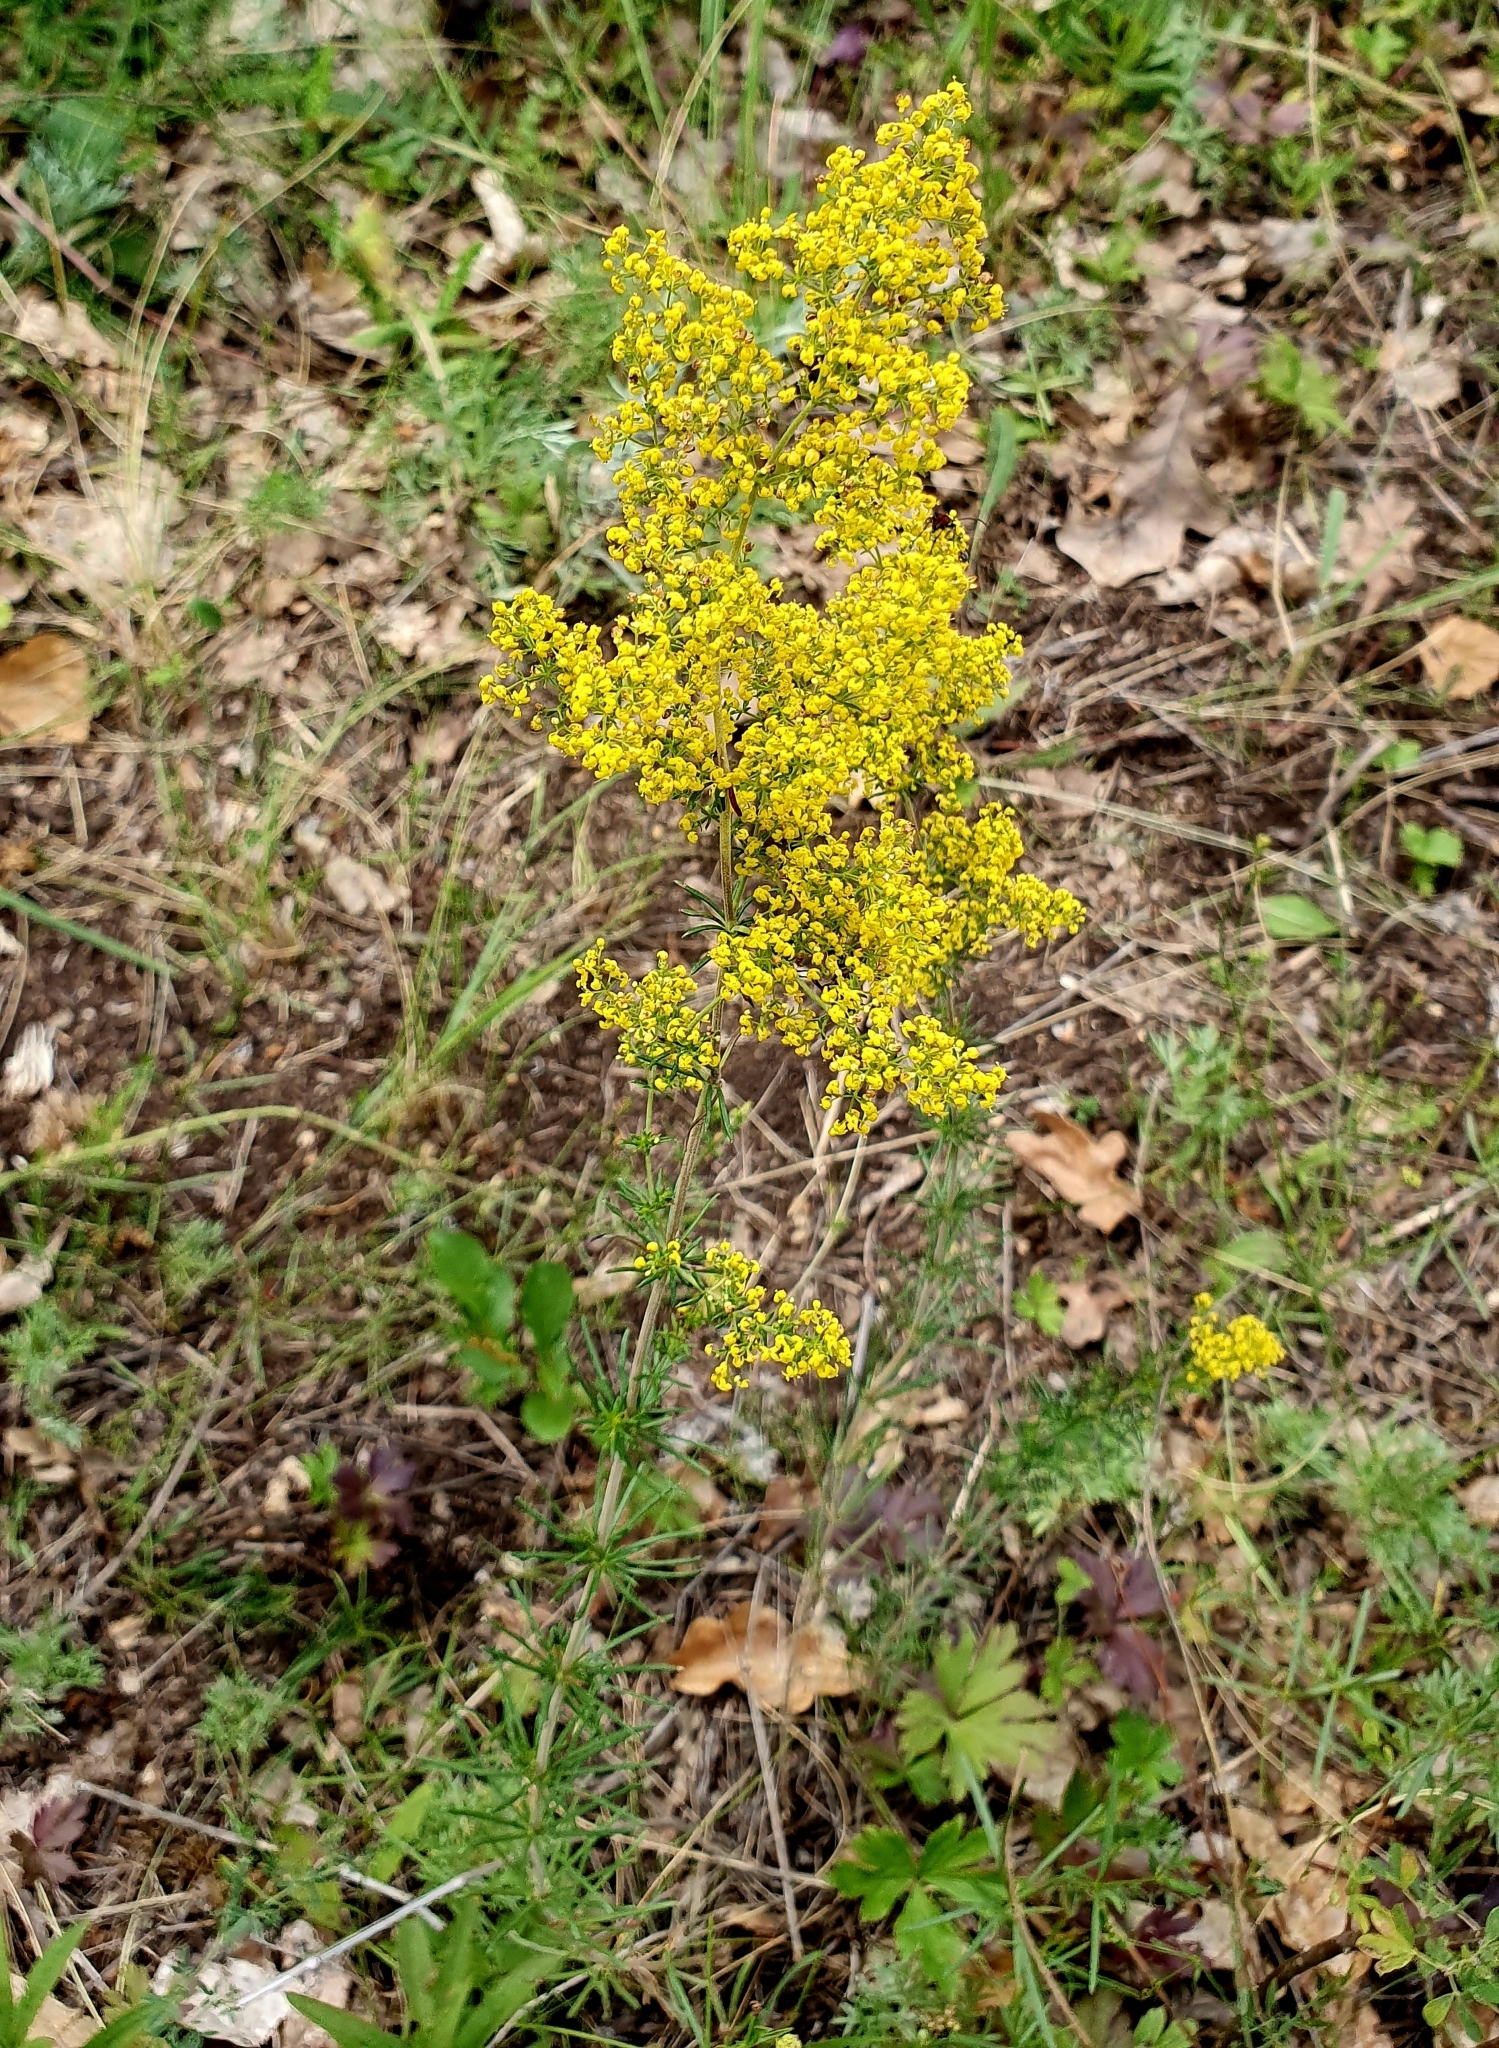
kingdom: Plantae
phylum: Tracheophyta
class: Magnoliopsida
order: Gentianales
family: Rubiaceae
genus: Galium
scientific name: Galium verum
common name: Lady's bedstraw
